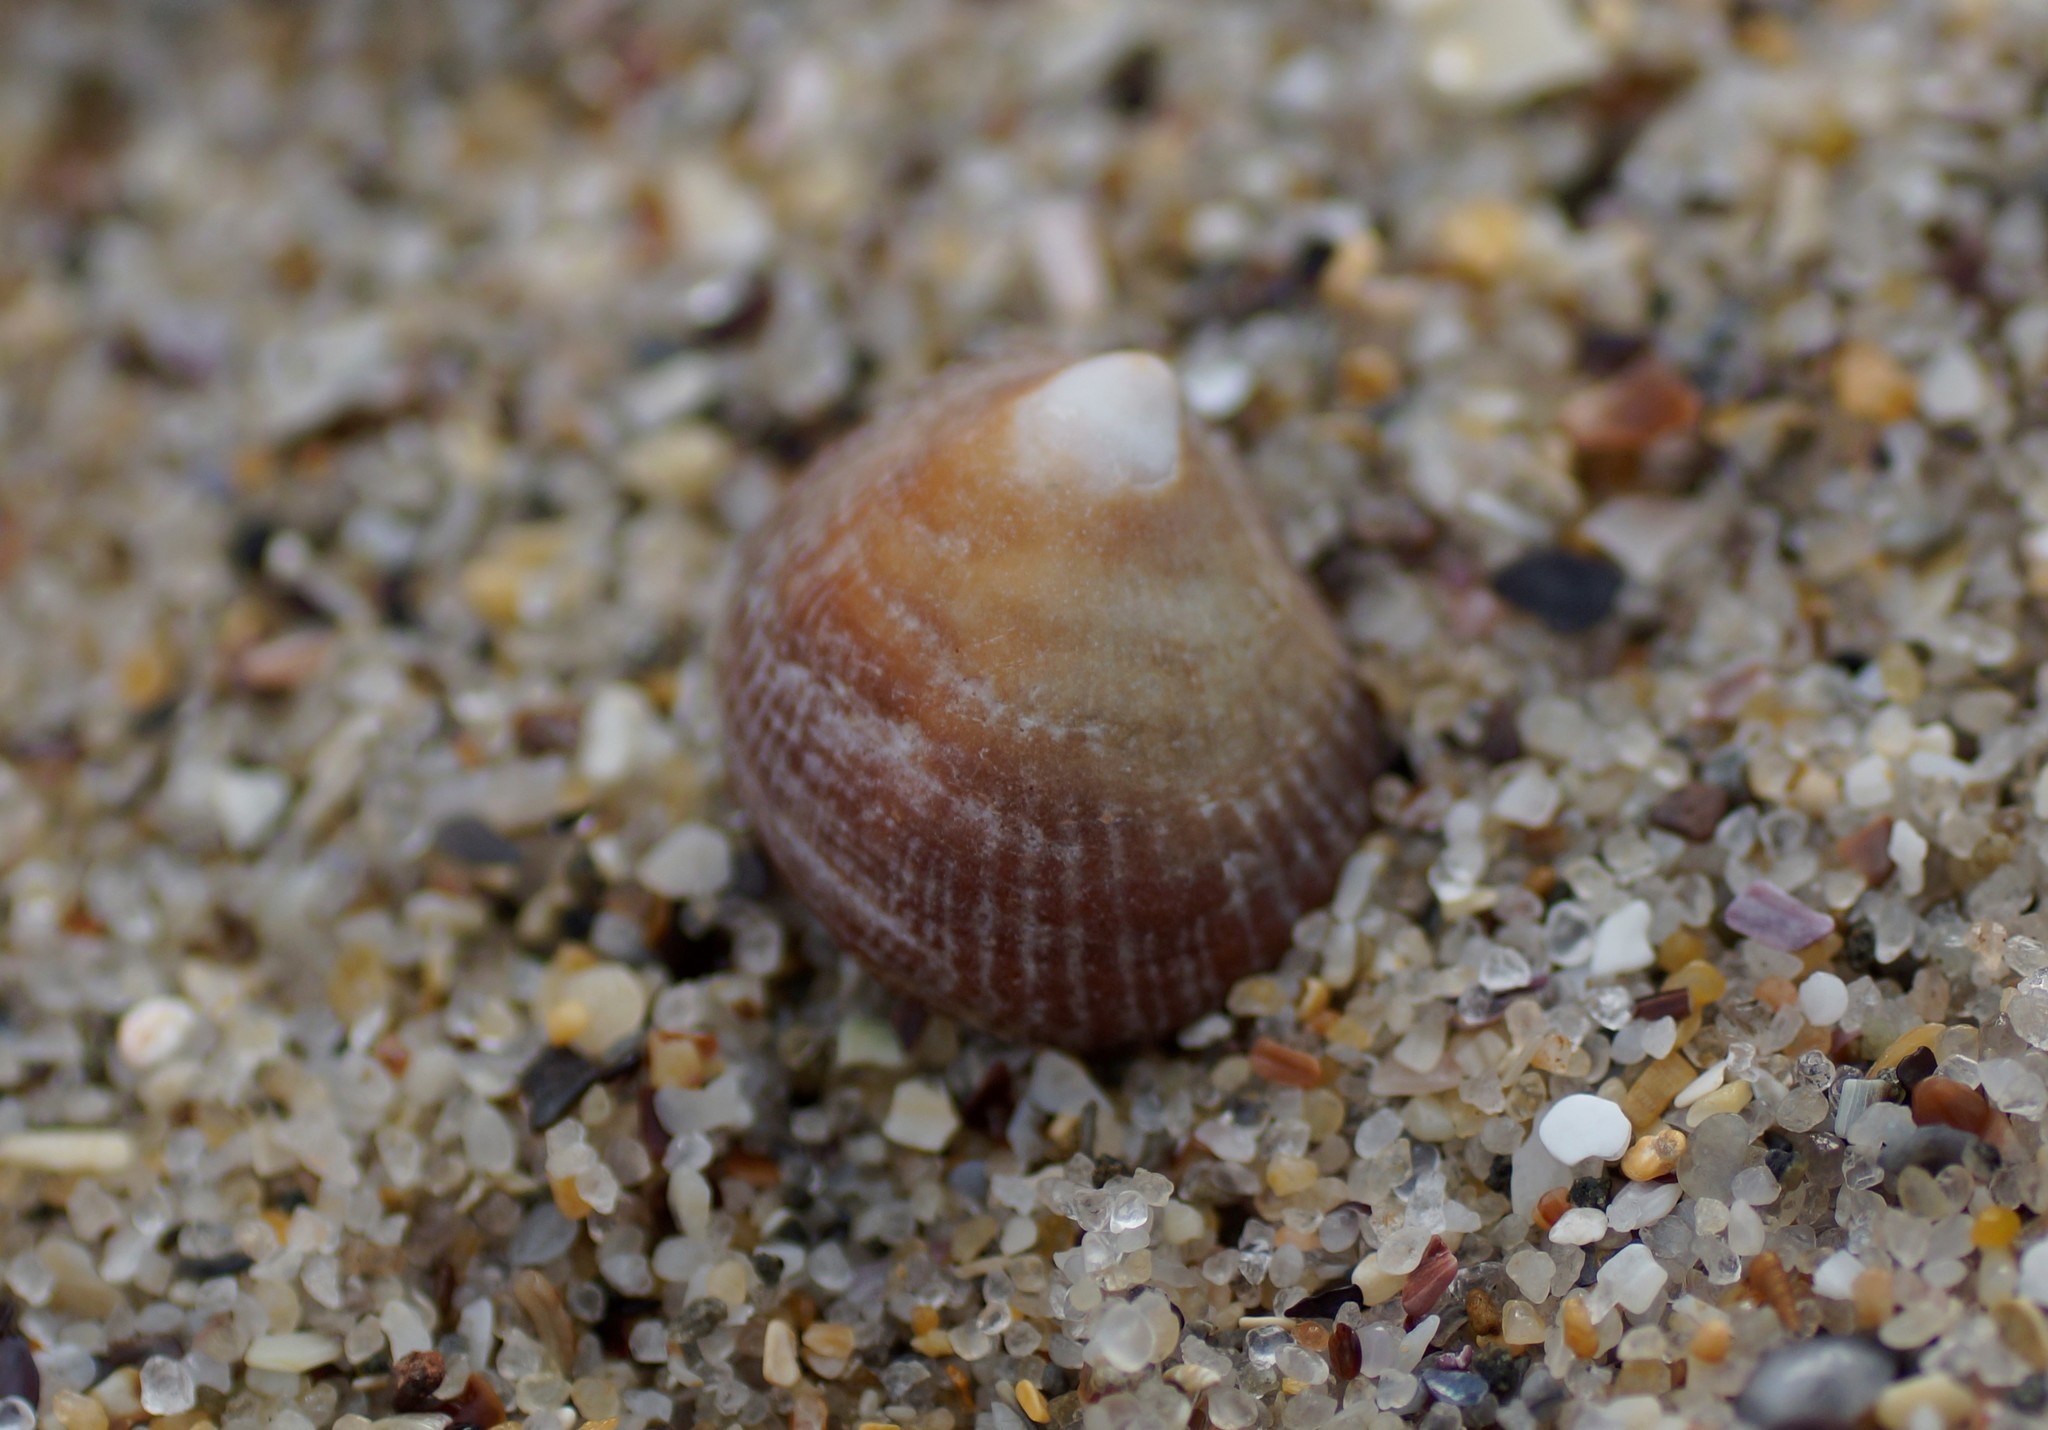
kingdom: Animalia
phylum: Mollusca
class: Gastropoda
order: Littorinimorpha
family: Hipponicidae
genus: Sabia
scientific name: Sabia australis
